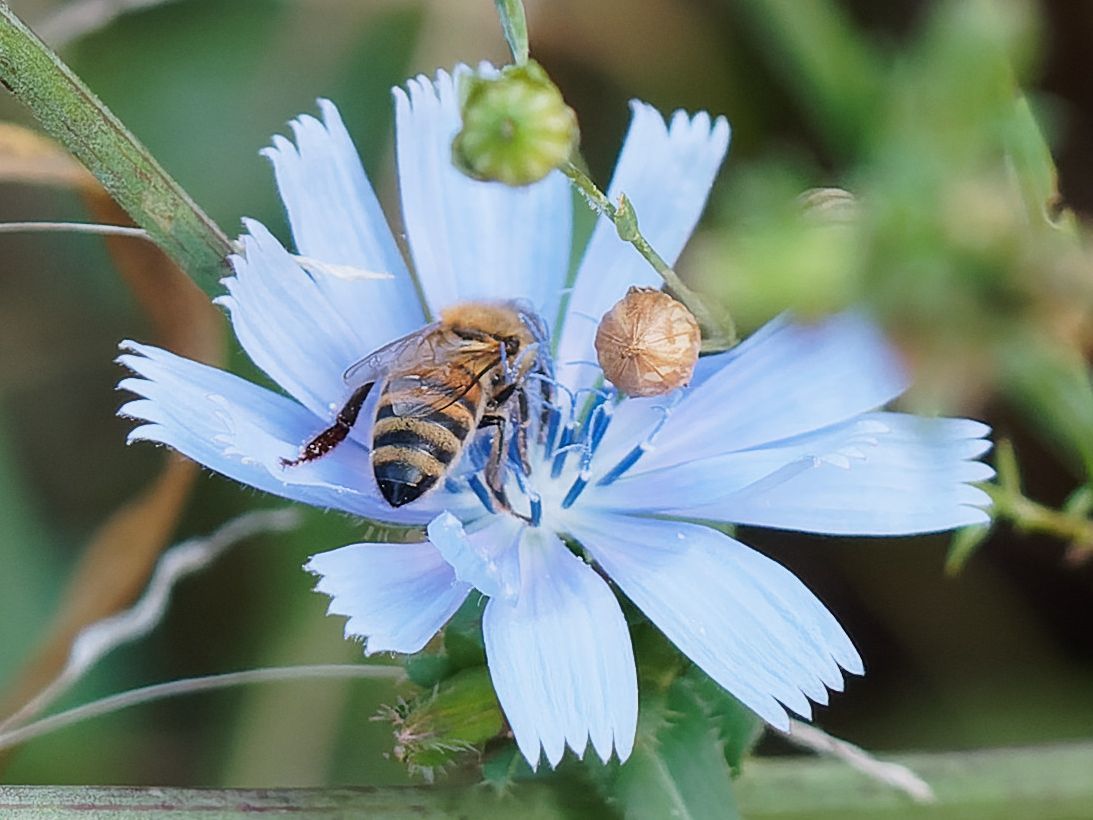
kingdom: Animalia
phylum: Arthropoda
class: Insecta
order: Hymenoptera
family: Apidae
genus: Apis
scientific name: Apis mellifera
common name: Honey bee
